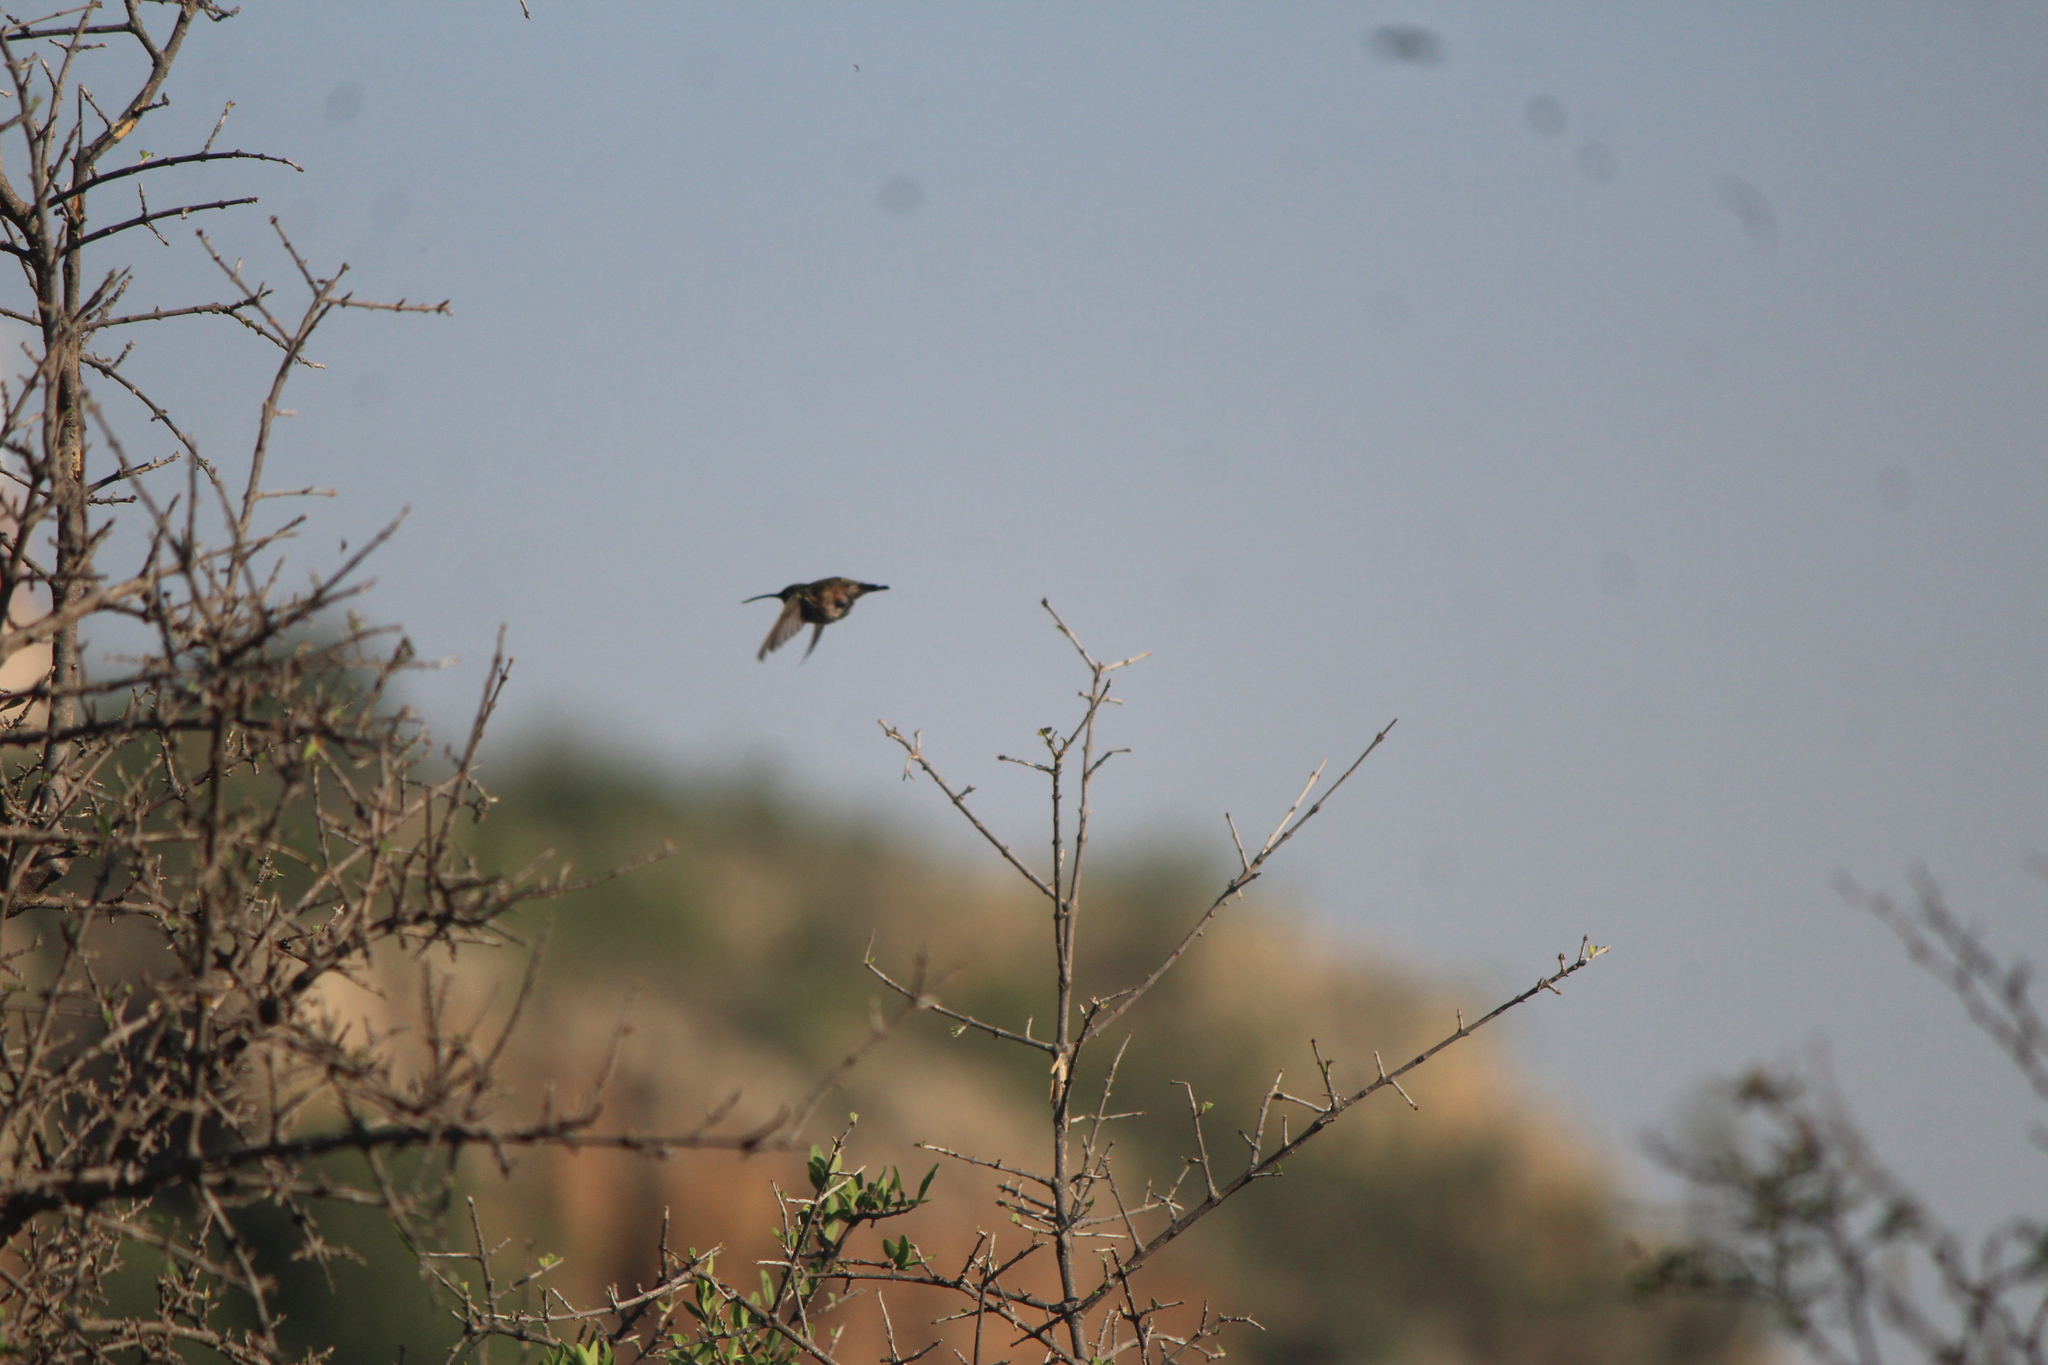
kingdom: Animalia
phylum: Chordata
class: Aves
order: Apodiformes
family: Trochilidae
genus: Calothorax
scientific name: Calothorax lucifer
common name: Lucifer sheartail
